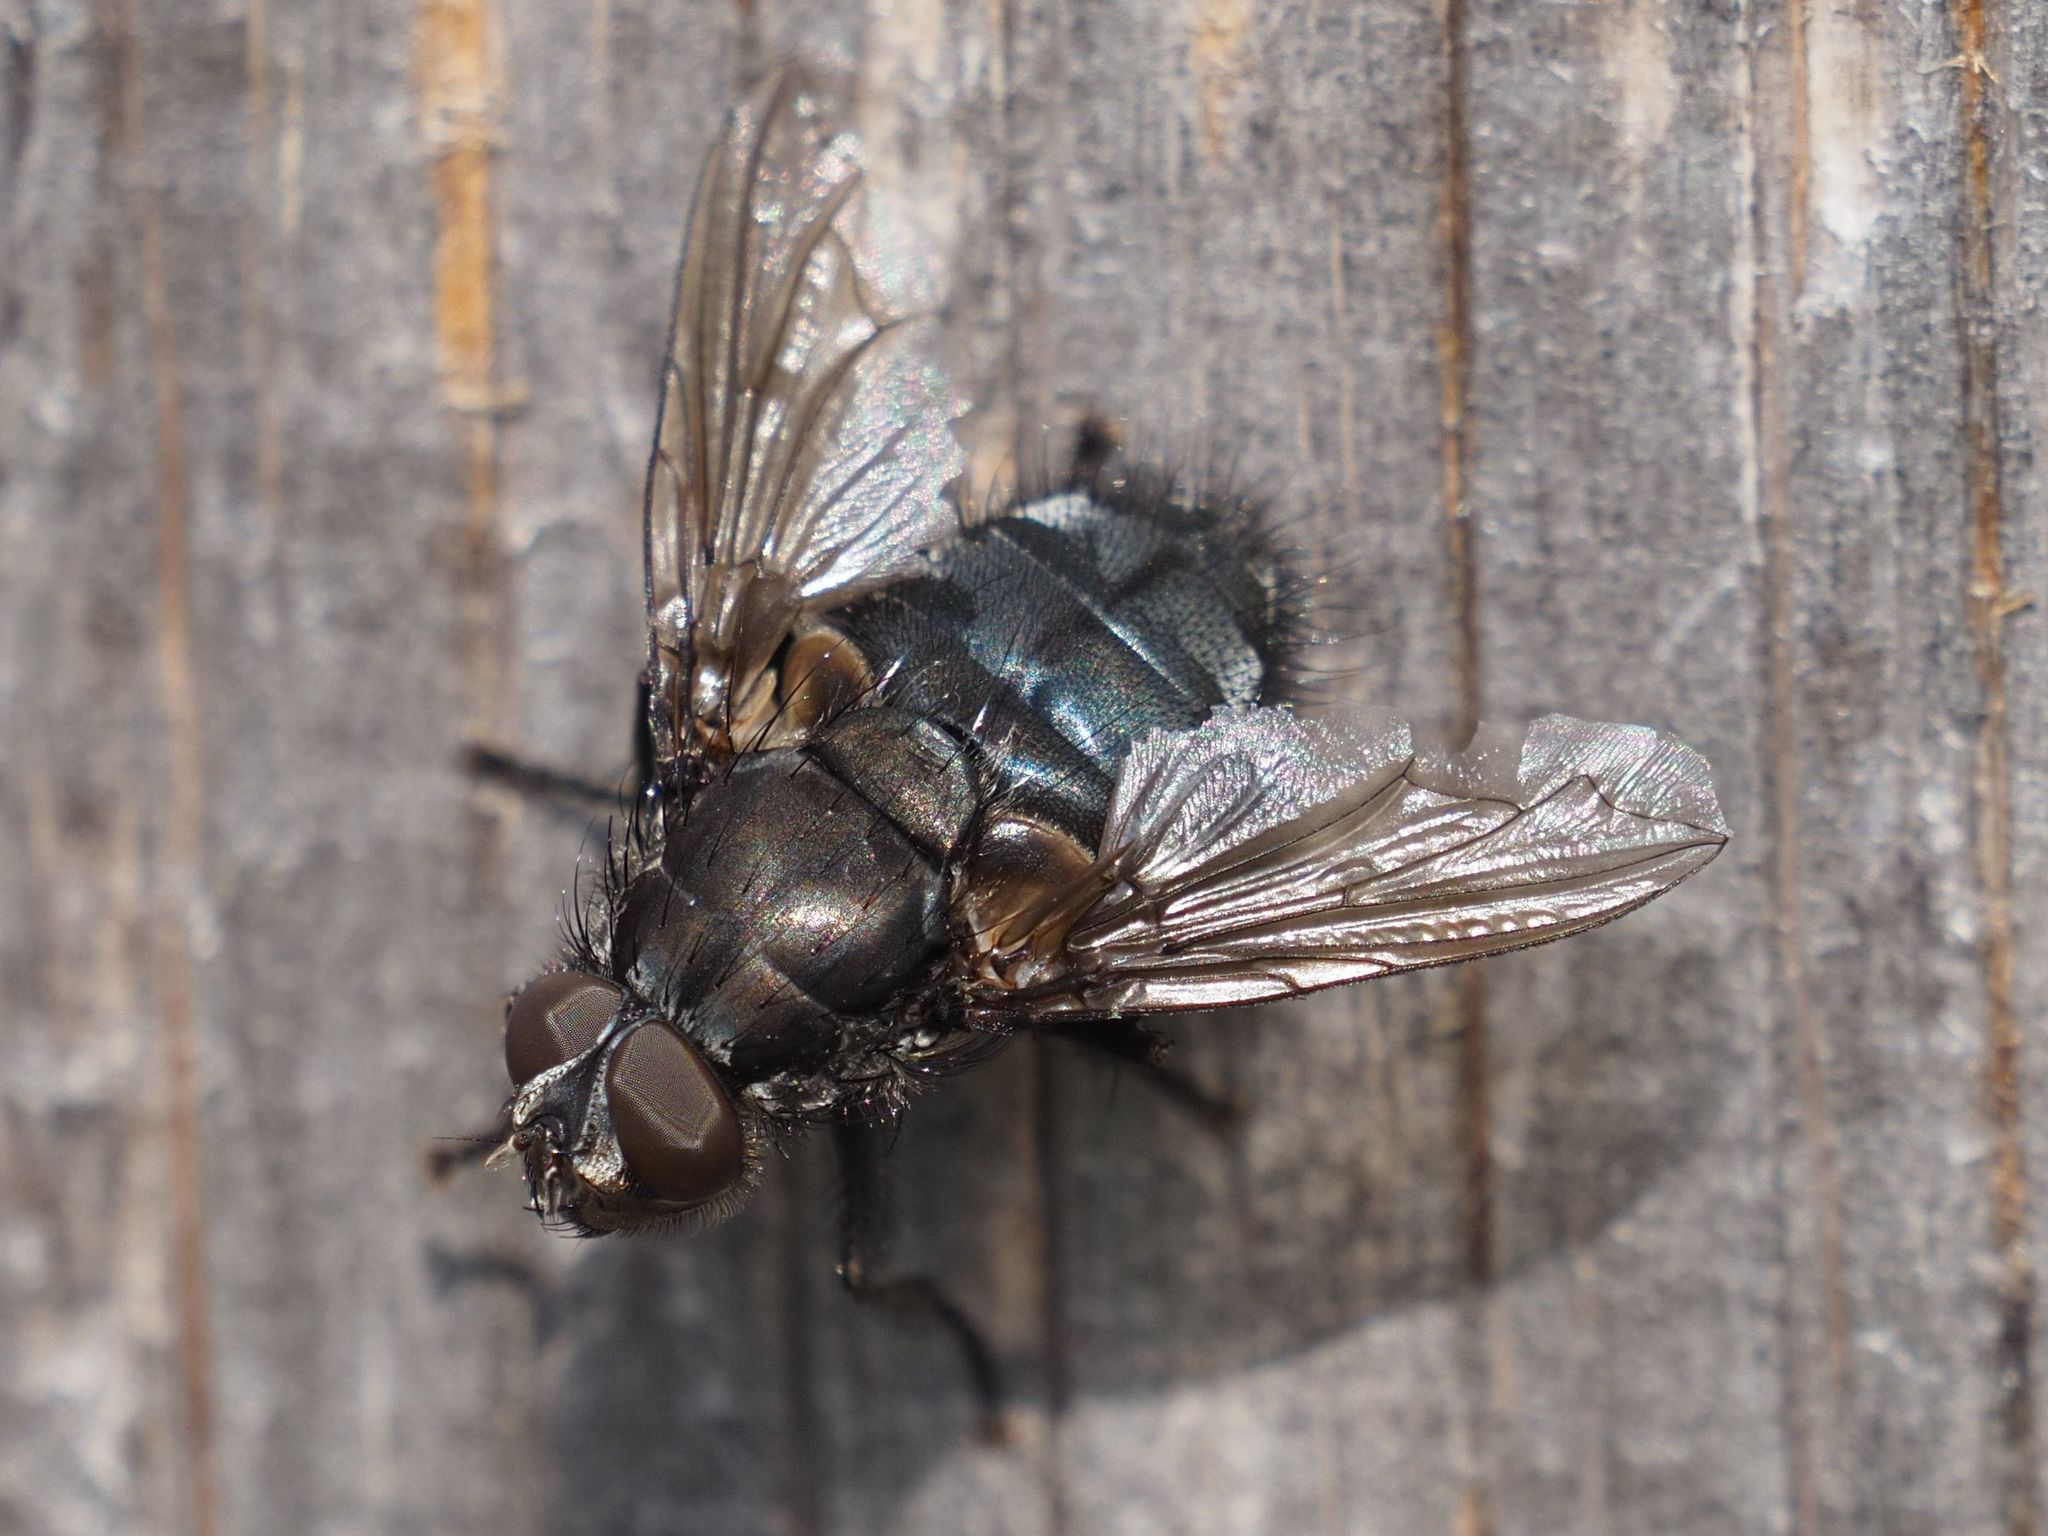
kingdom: Animalia
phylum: Arthropoda
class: Insecta
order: Diptera
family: Polleniidae
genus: Pollenia
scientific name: Pollenia vagabunda
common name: Vagabund cluster fly
